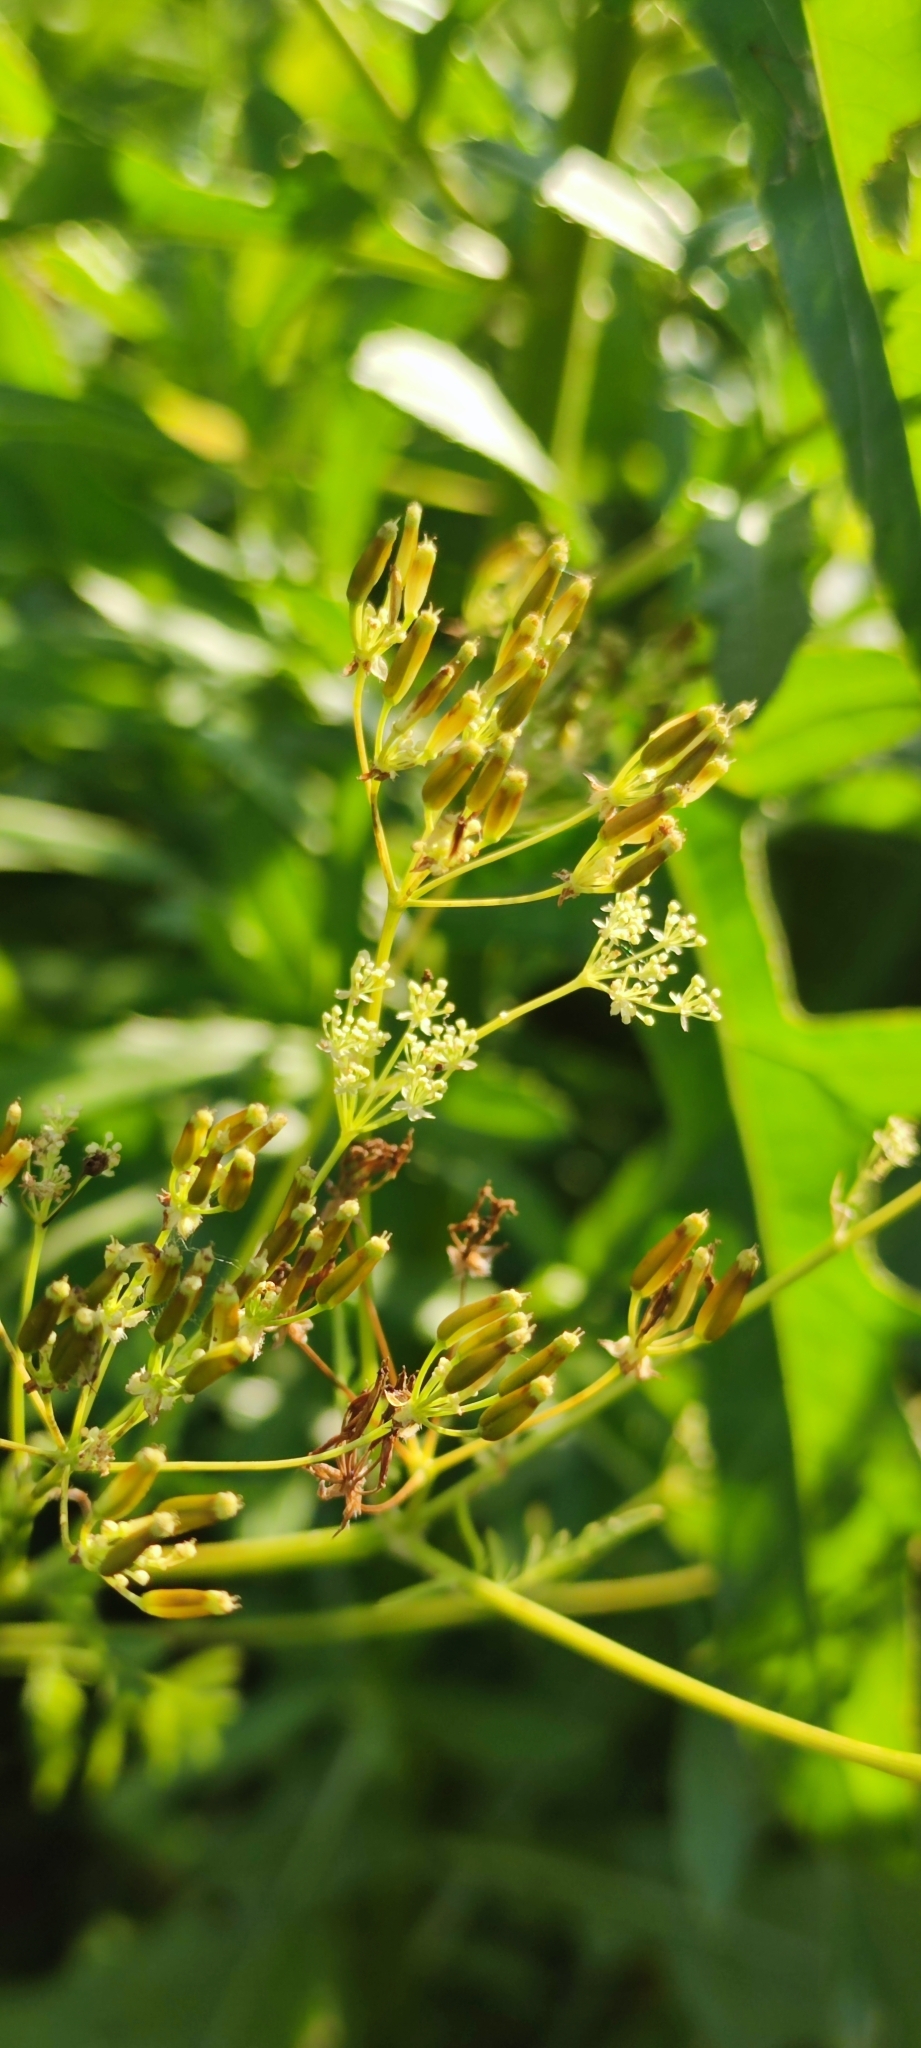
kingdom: Plantae
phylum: Tracheophyta
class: Magnoliopsida
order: Apiales
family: Apiaceae
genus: Anthriscus
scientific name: Anthriscus sylvestris
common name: Cow parsley
